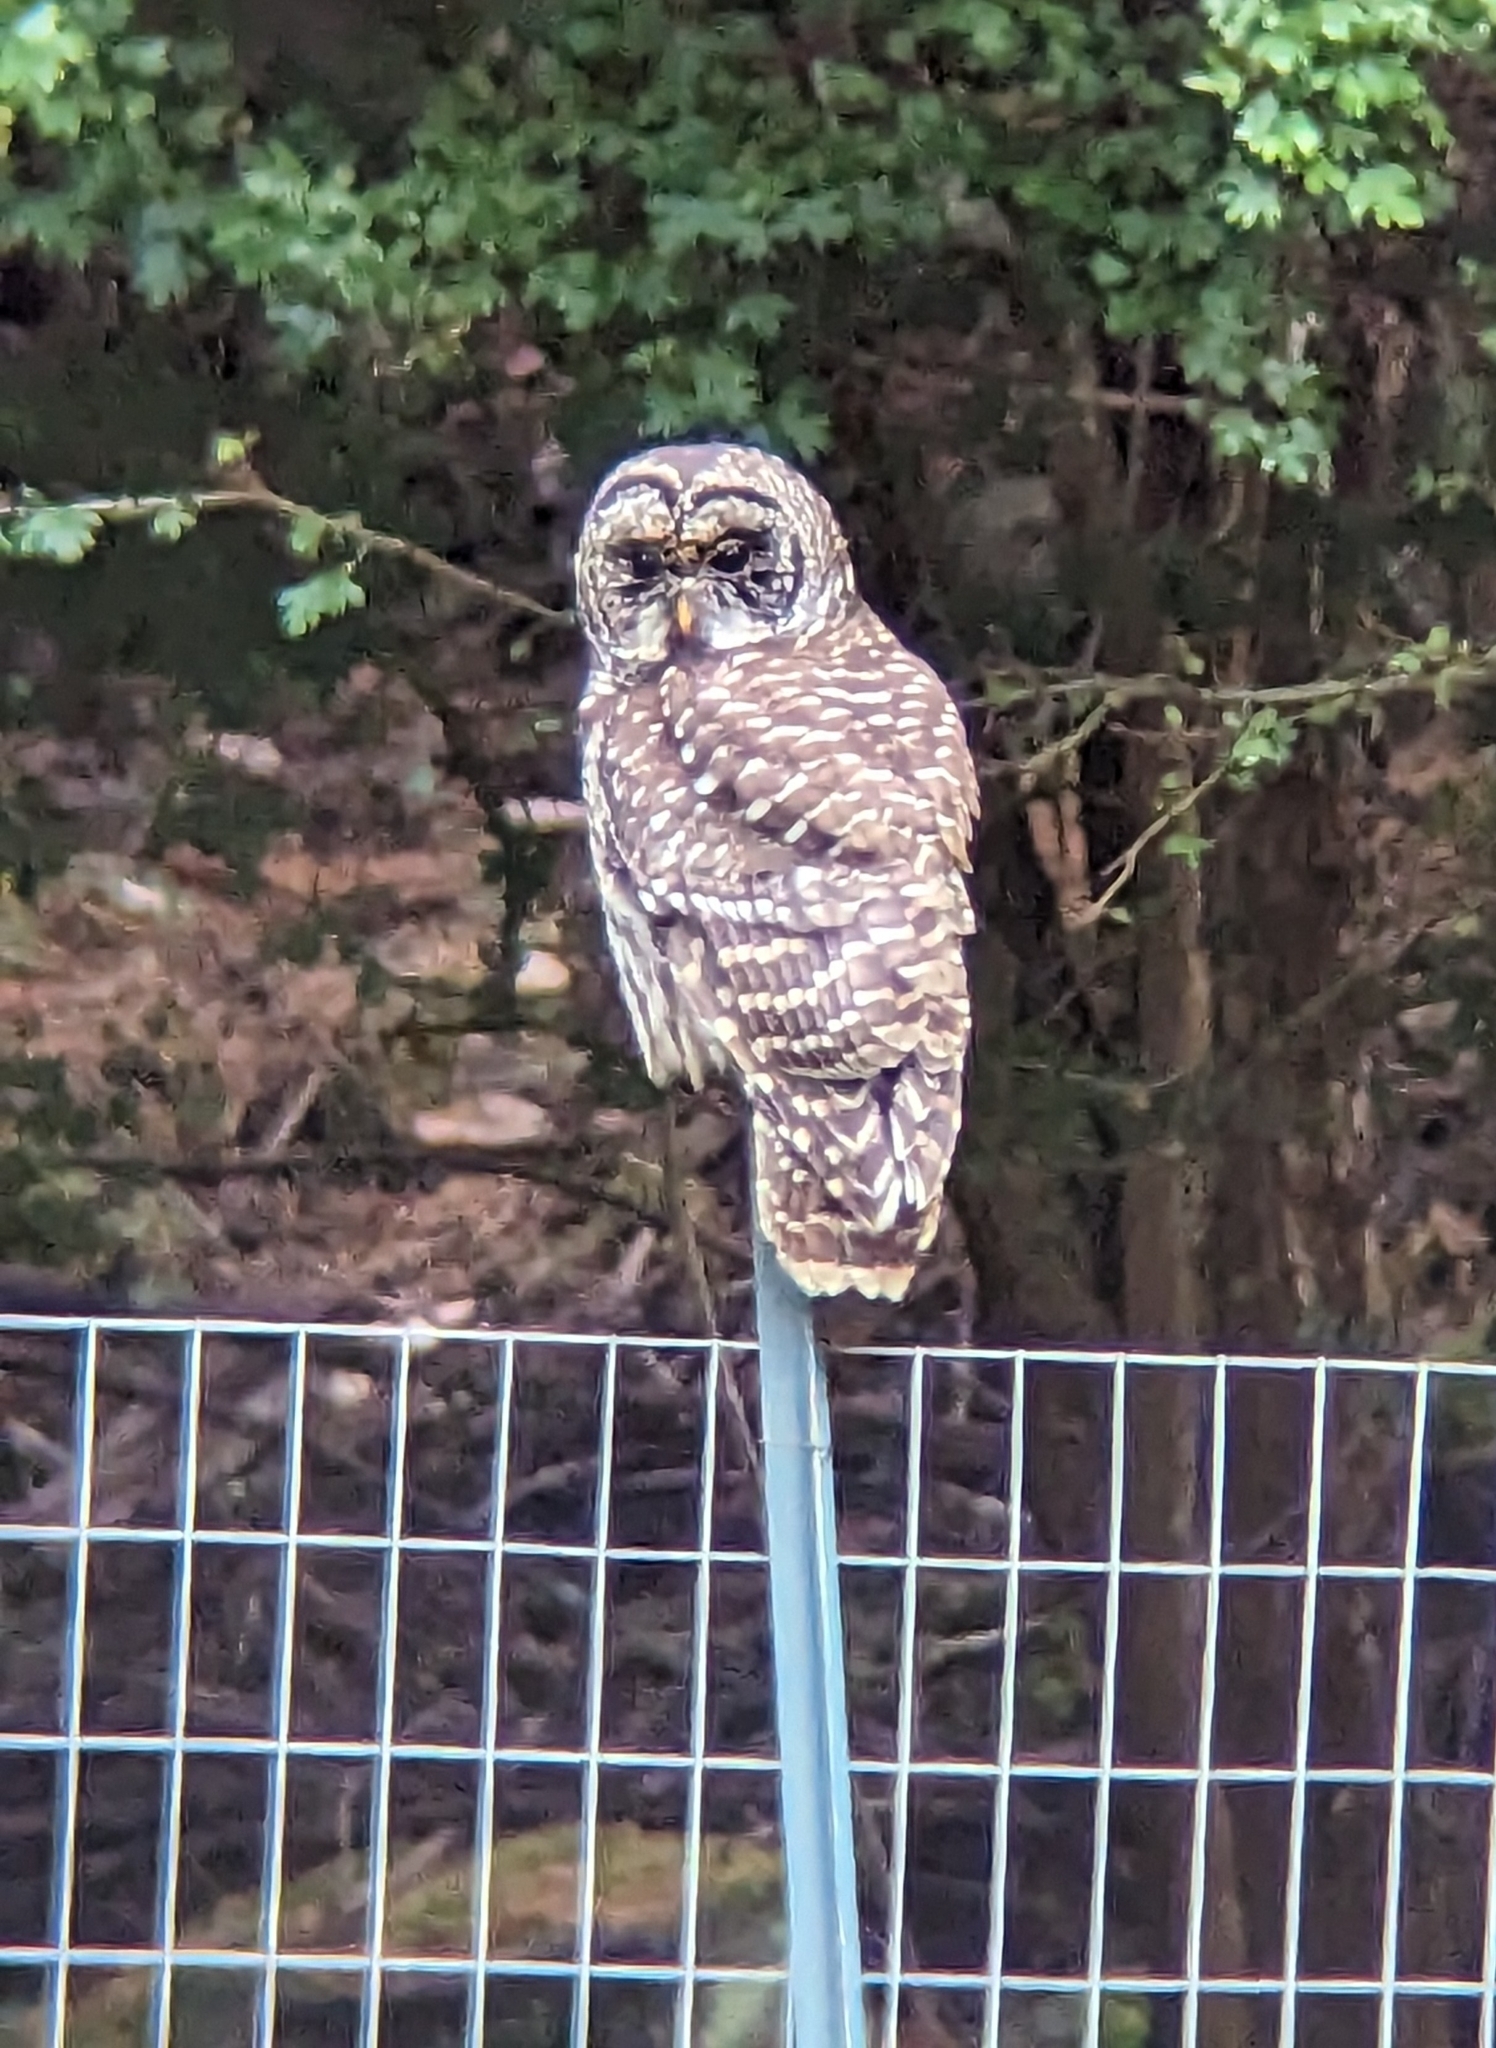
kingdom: Animalia
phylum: Chordata
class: Aves
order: Strigiformes
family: Strigidae
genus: Strix
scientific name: Strix varia
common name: Barred owl
